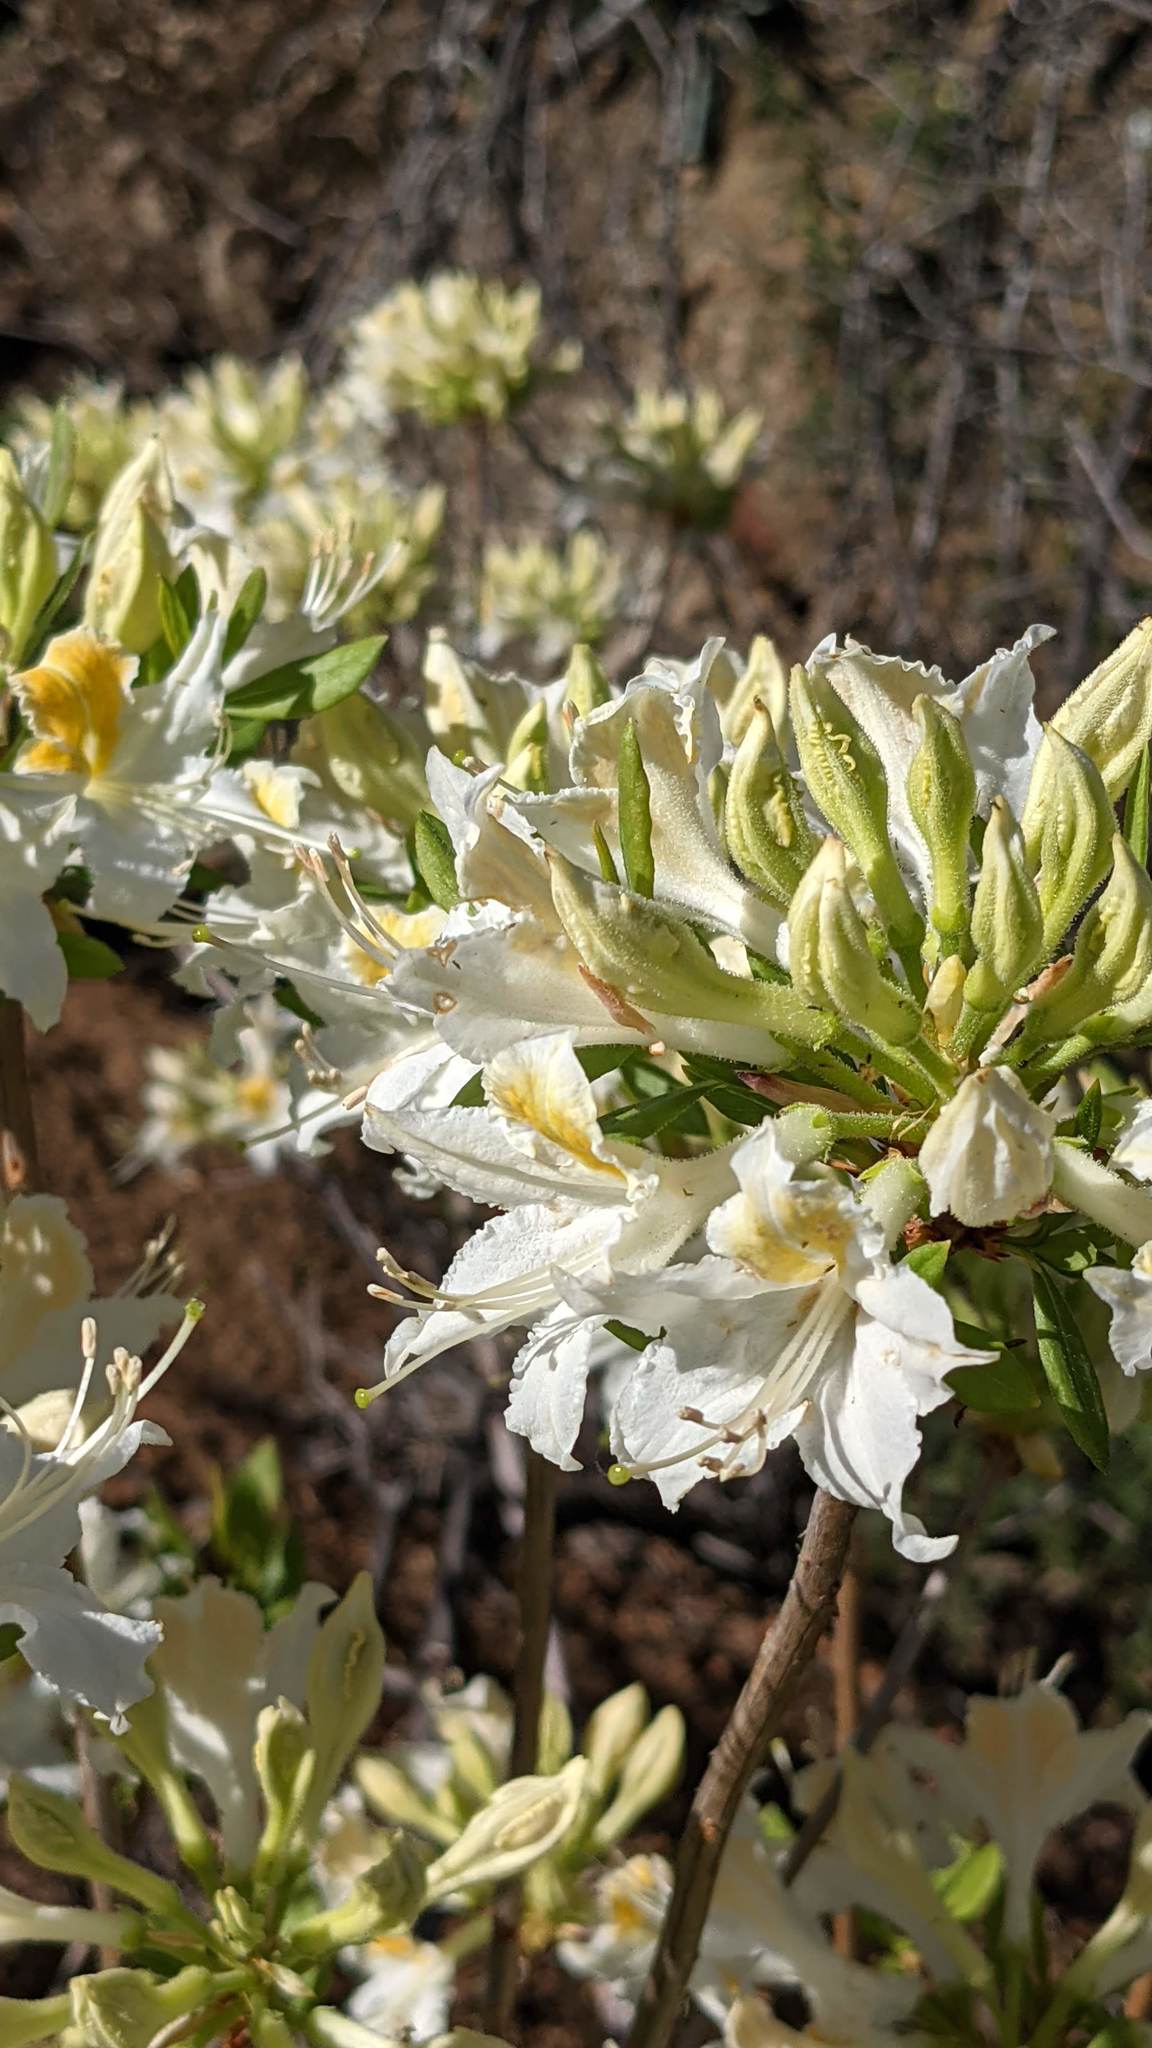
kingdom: Plantae
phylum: Tracheophyta
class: Magnoliopsida
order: Ericales
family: Ericaceae
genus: Rhododendron
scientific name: Rhododendron occidentale
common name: Western azalea
